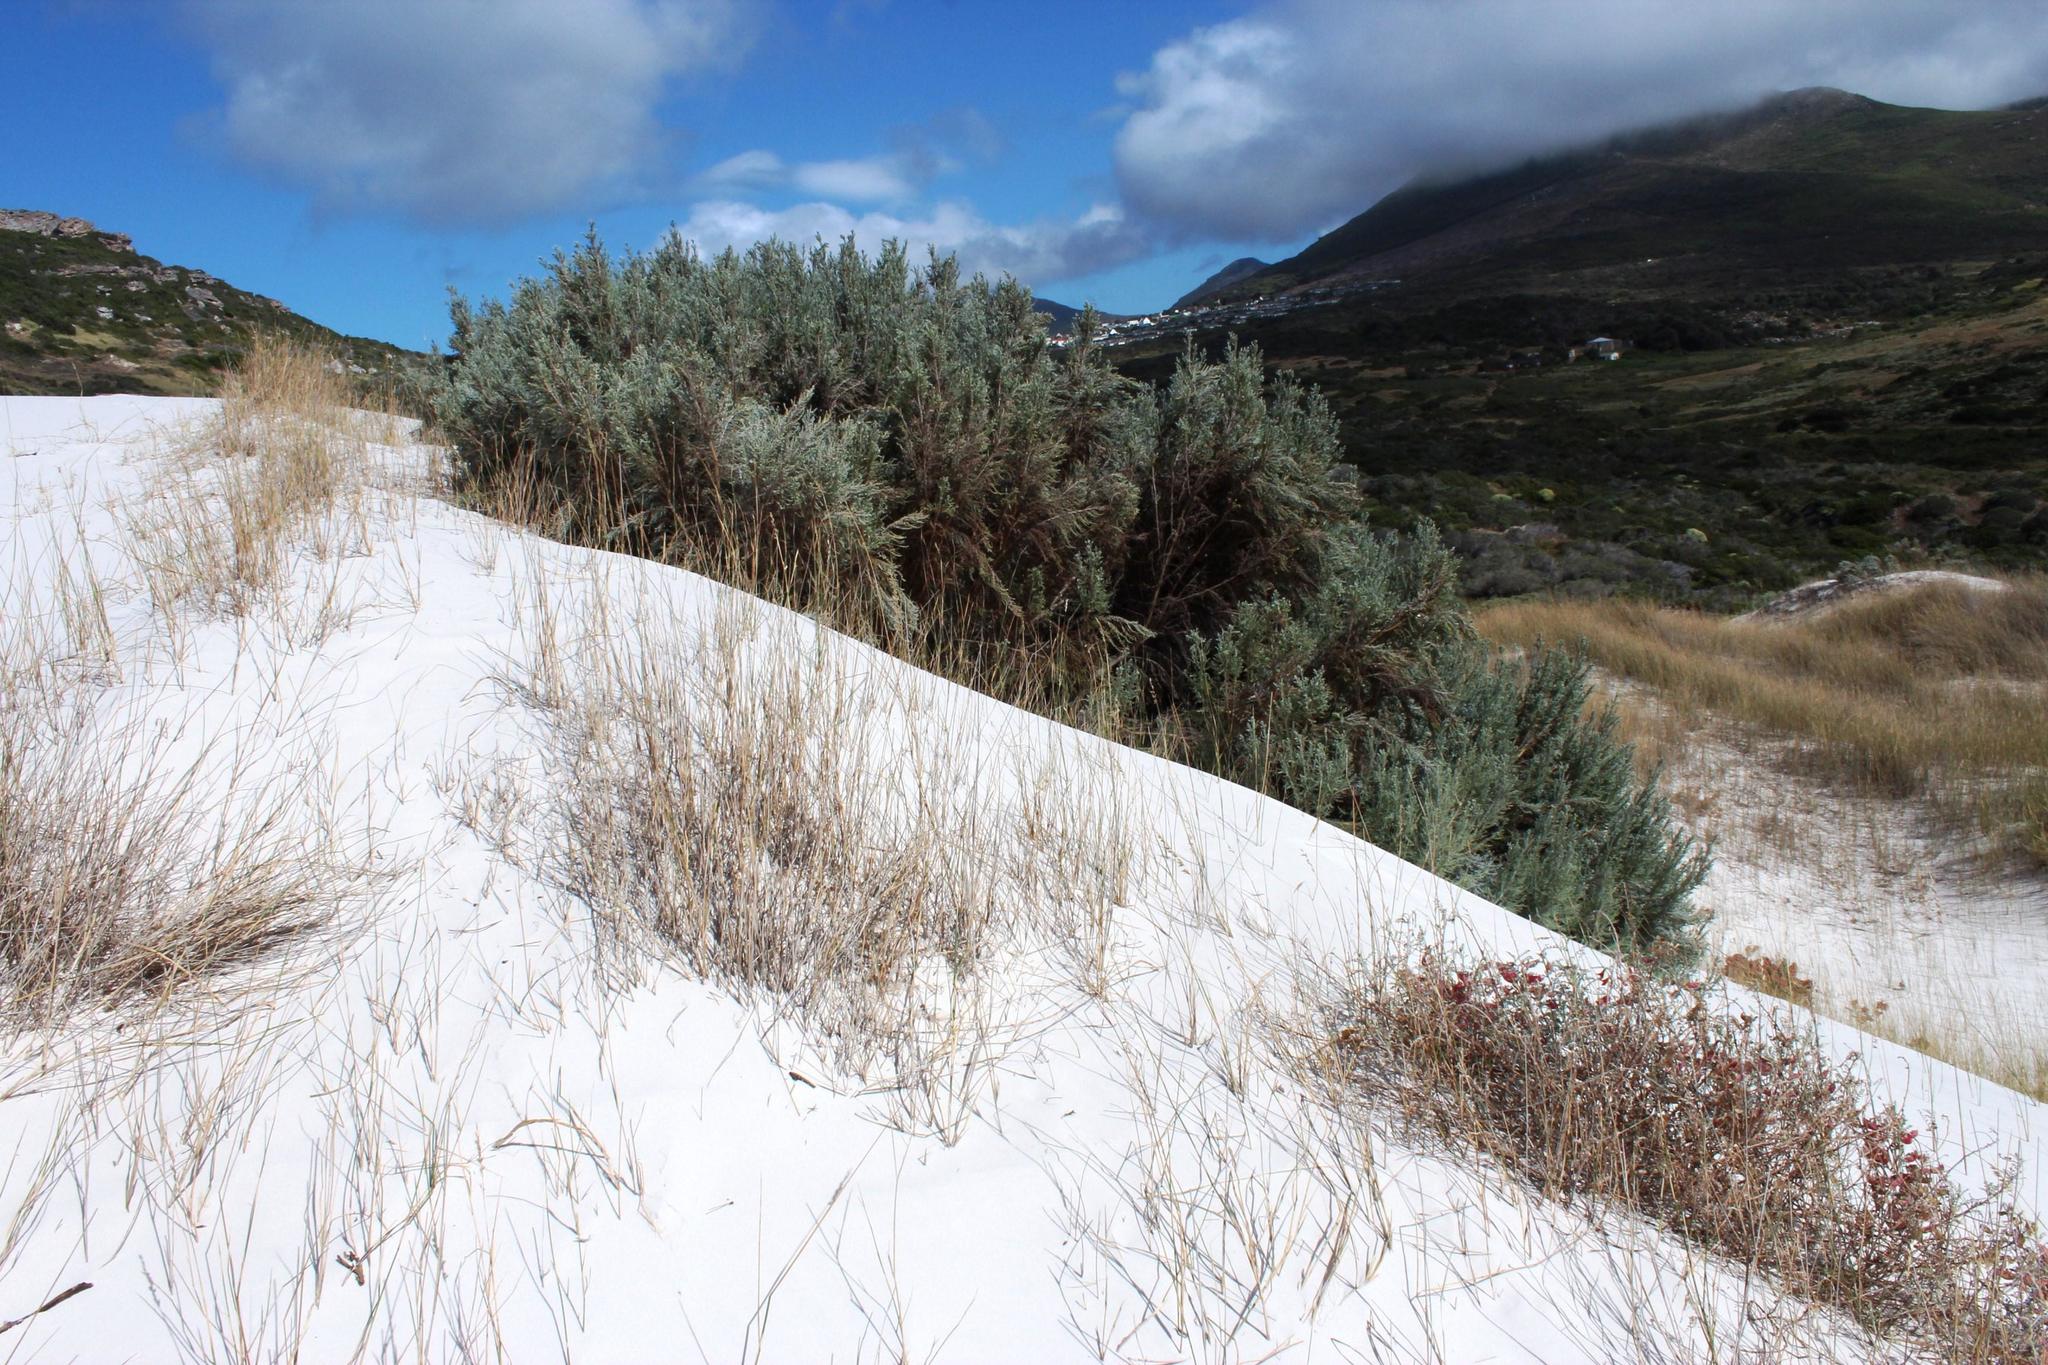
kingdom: Plantae
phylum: Tracheophyta
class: Magnoliopsida
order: Asterales
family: Asteraceae
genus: Seriphium
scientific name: Seriphium plumosum
